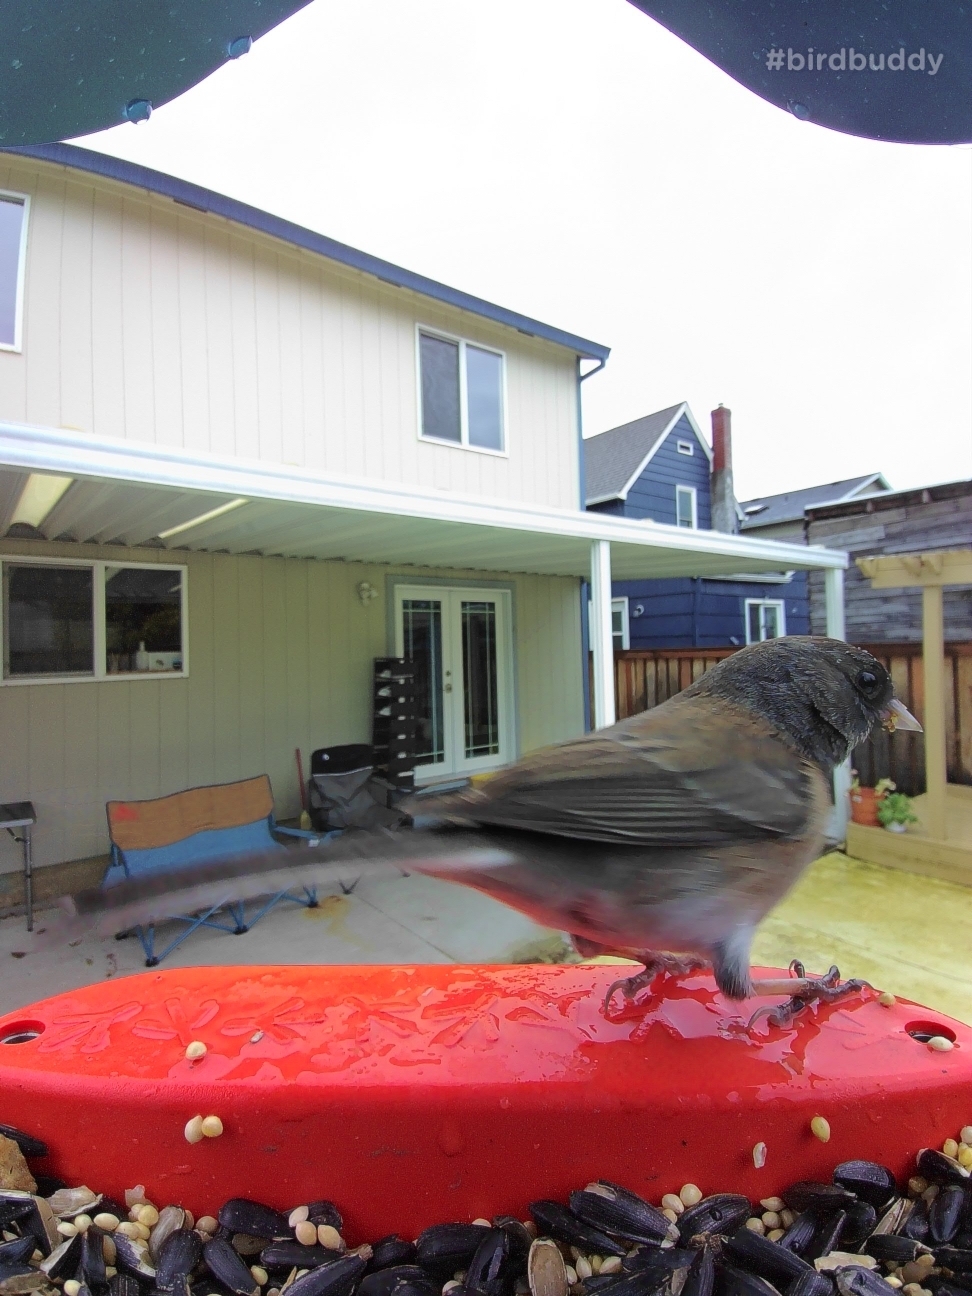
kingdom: Animalia
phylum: Chordata
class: Aves
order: Passeriformes
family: Passerellidae
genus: Junco
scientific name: Junco hyemalis
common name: Dark-eyed junco
